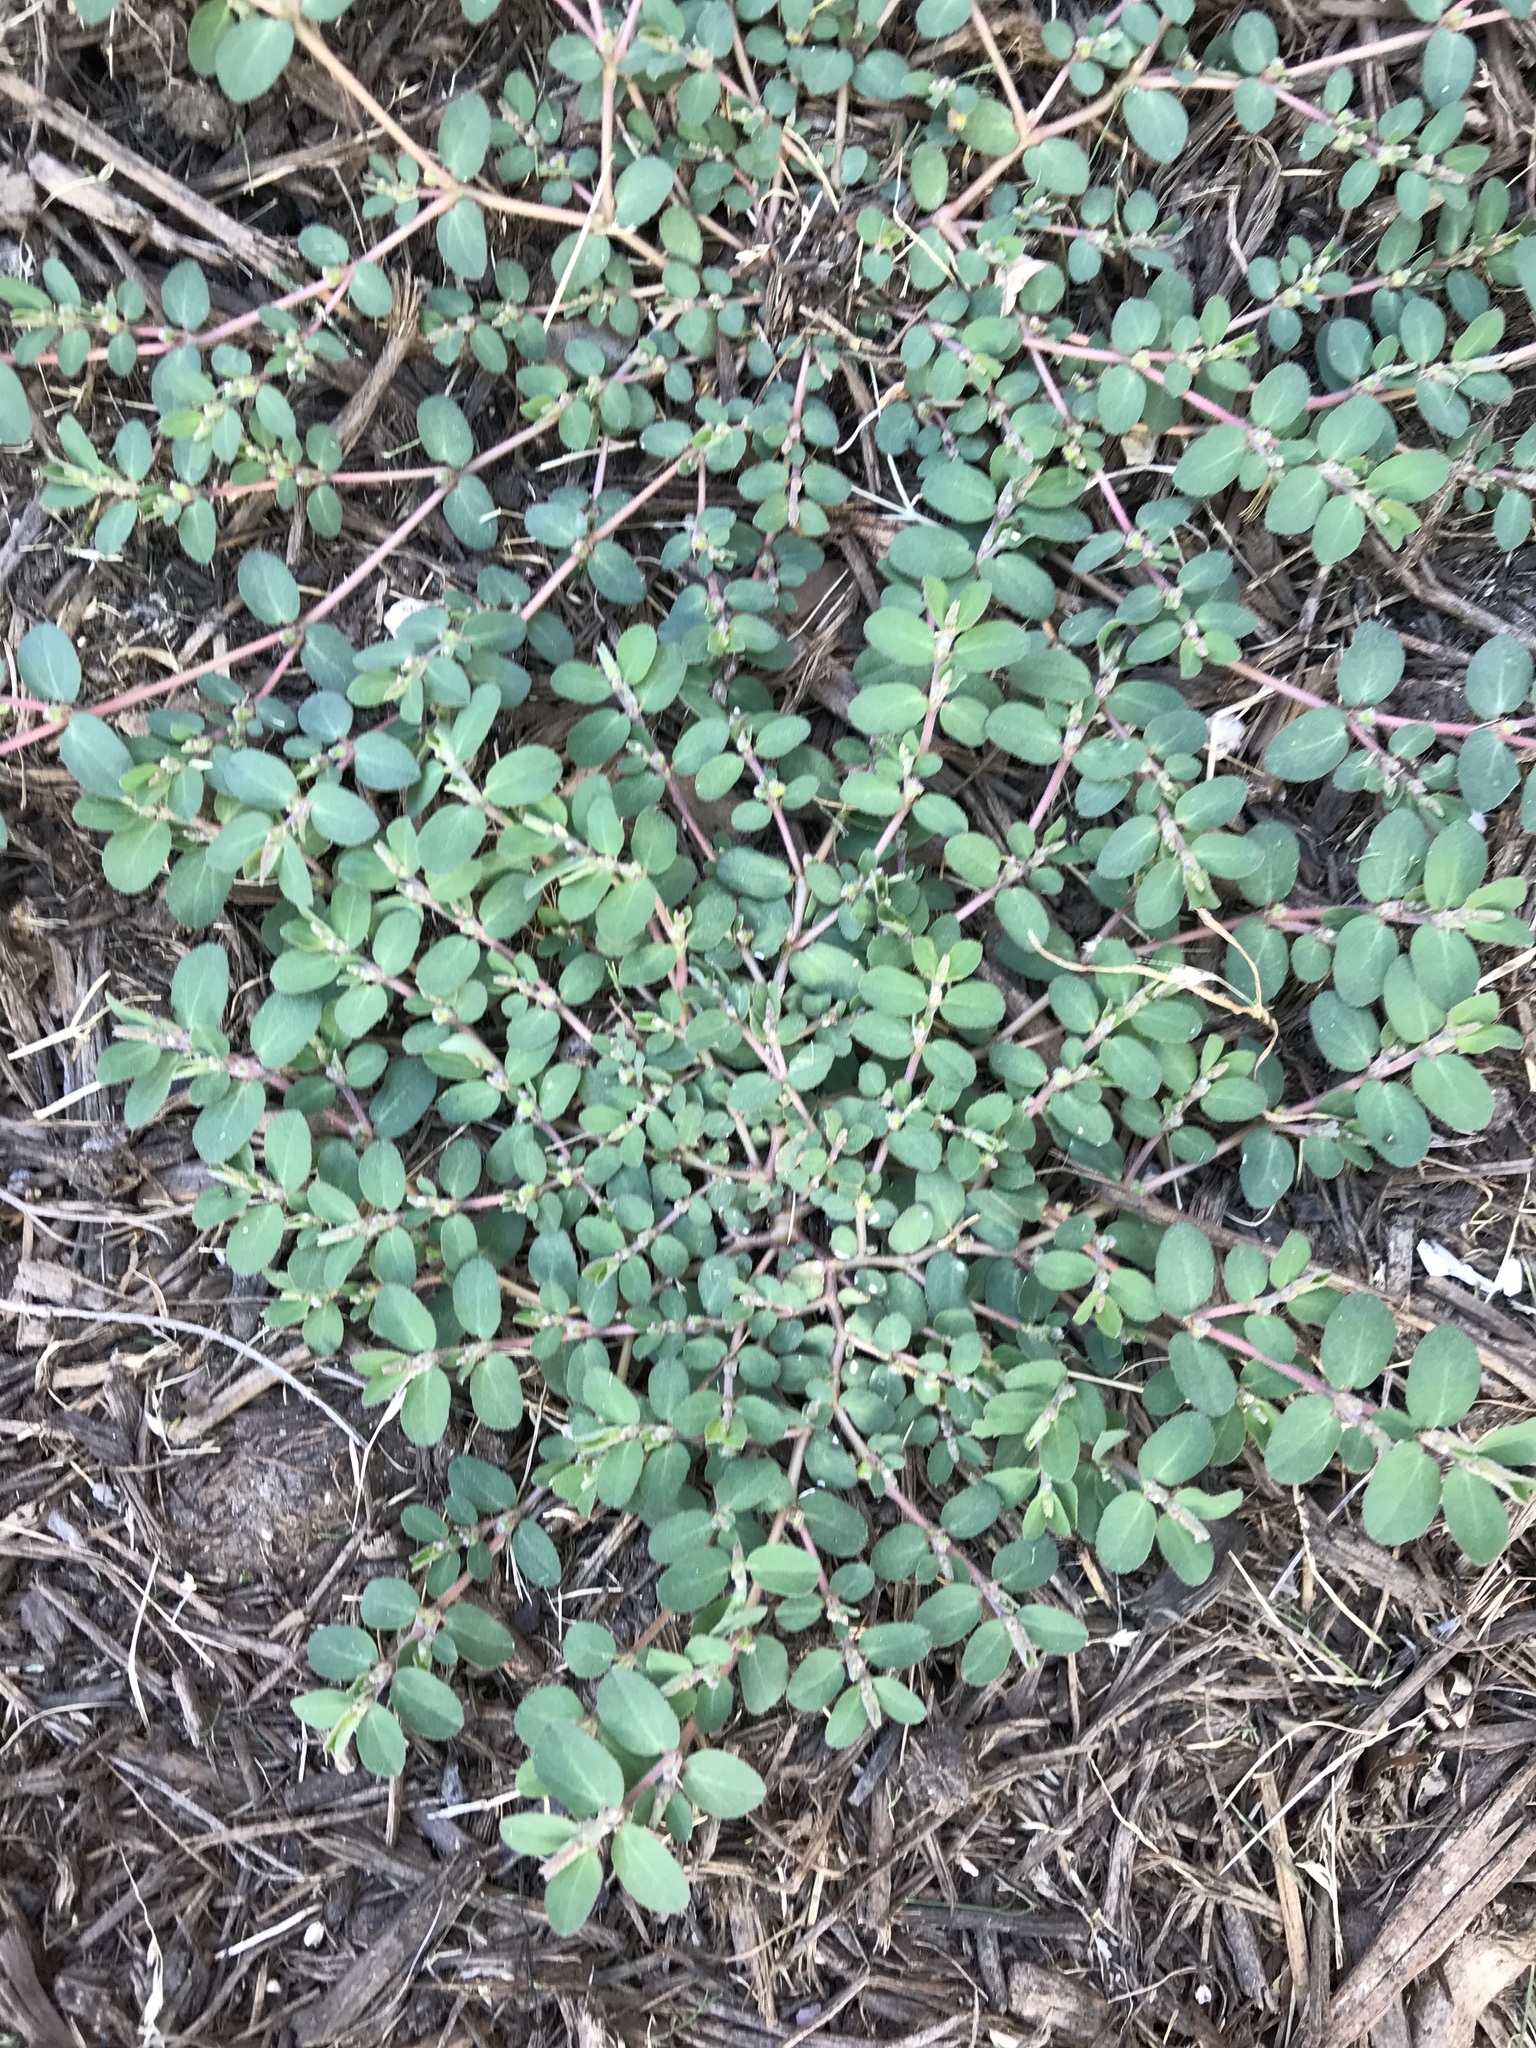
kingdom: Plantae
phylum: Tracheophyta
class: Magnoliopsida
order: Malpighiales
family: Euphorbiaceae
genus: Euphorbia
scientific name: Euphorbia prostrata
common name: Prostrate sandmat
